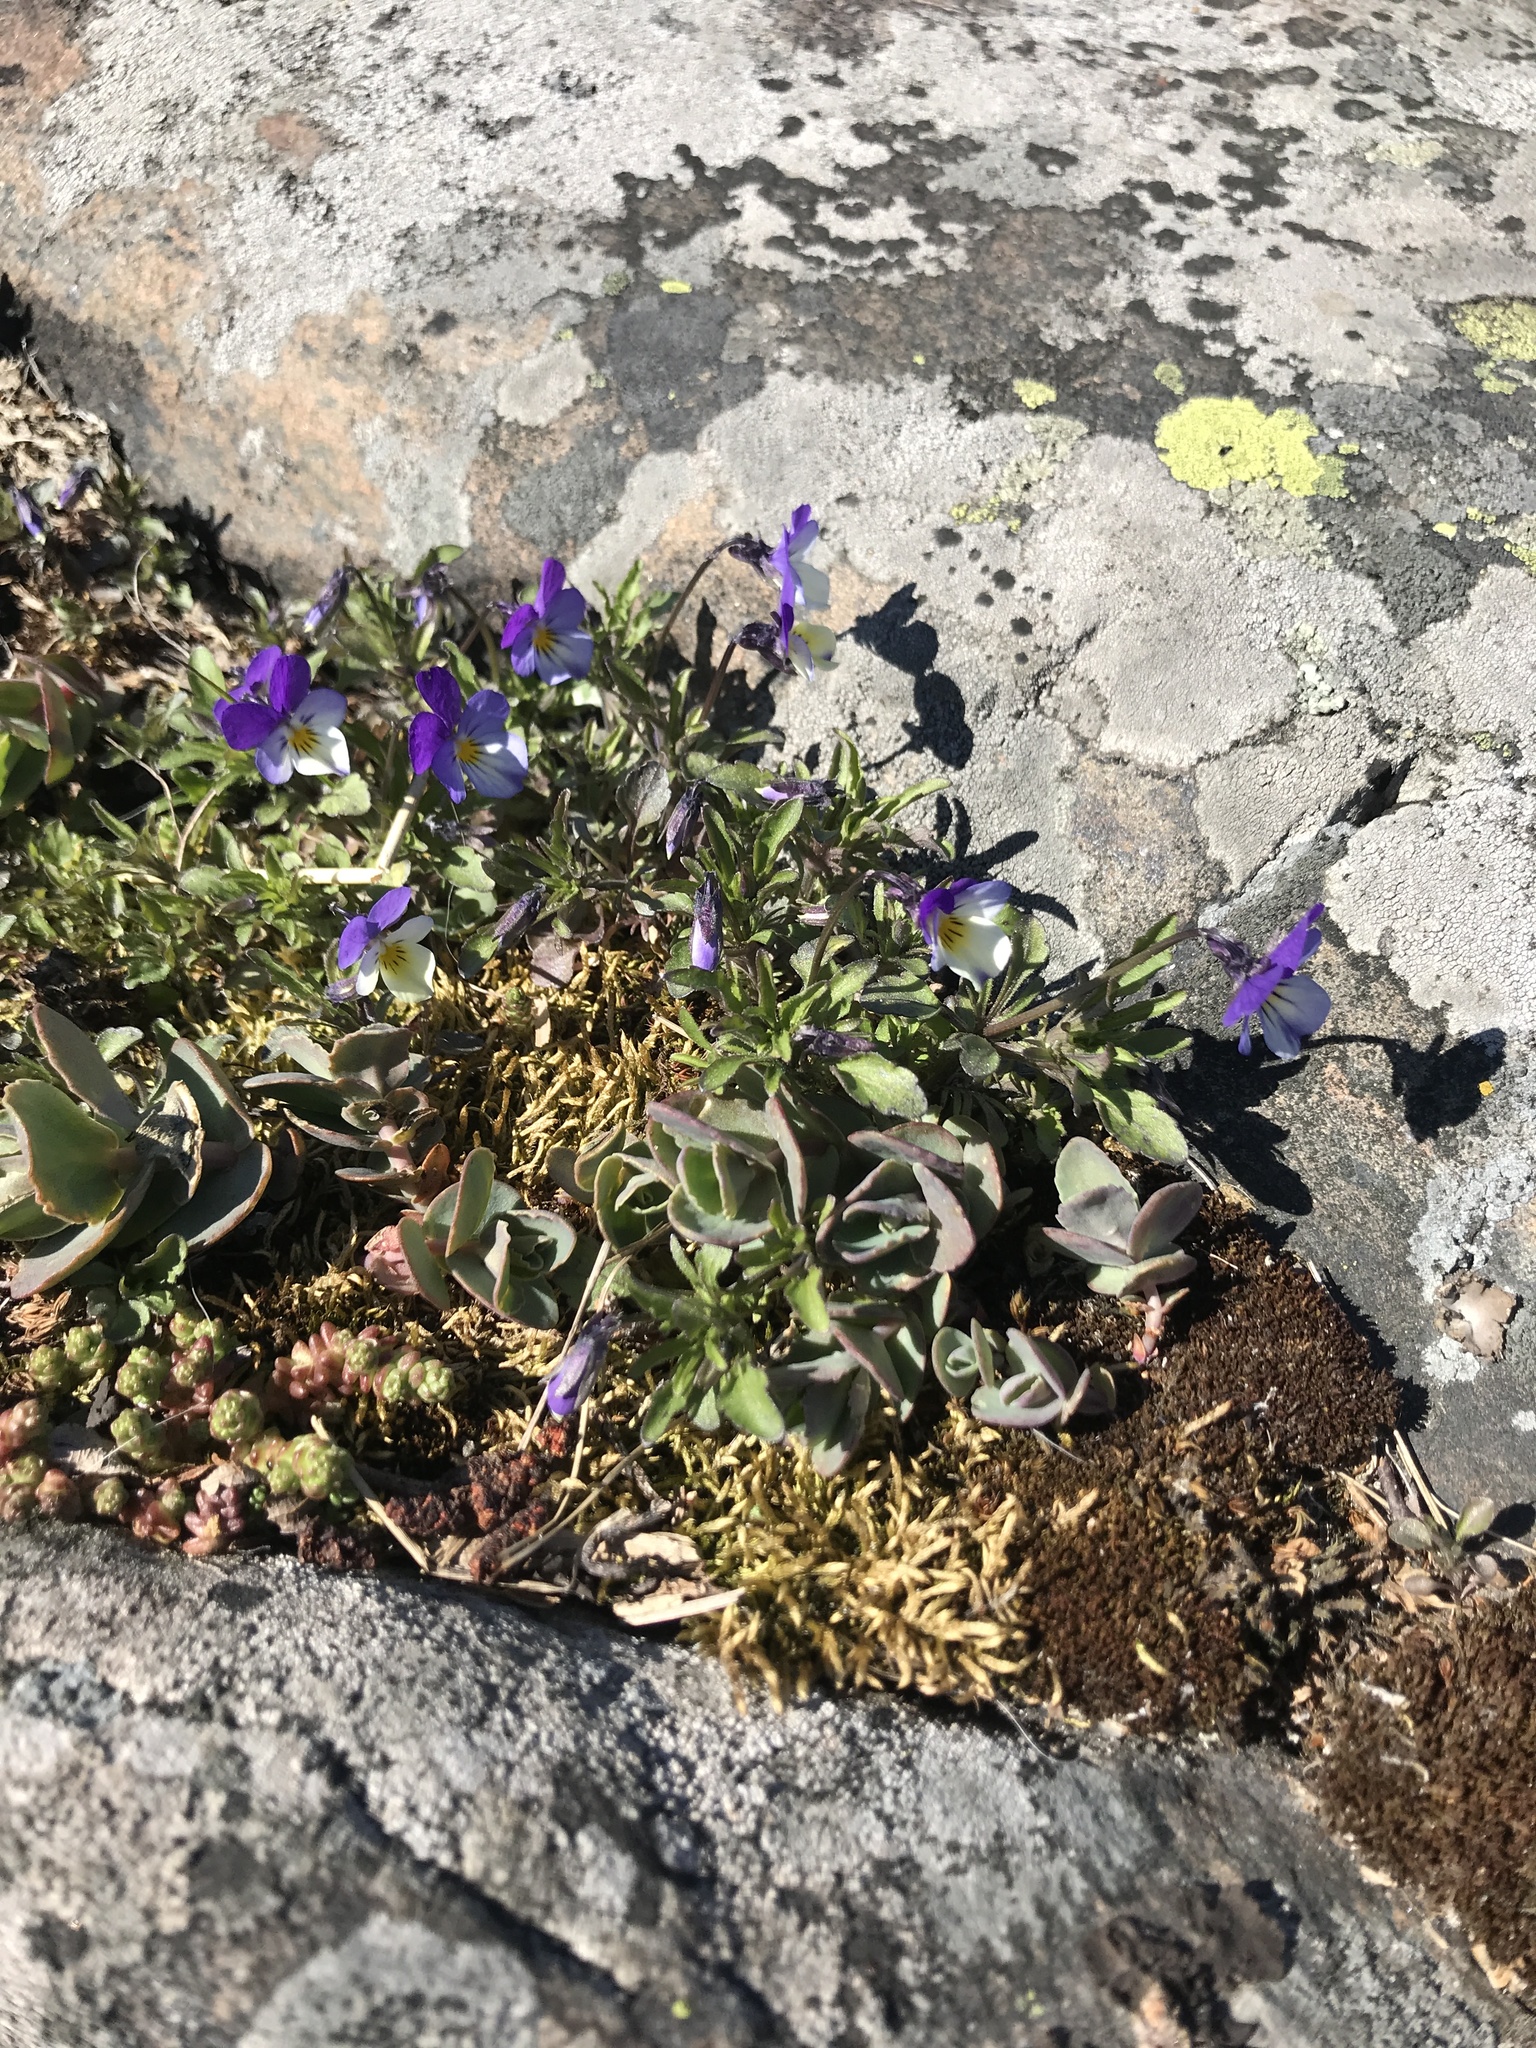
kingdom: Plantae
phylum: Tracheophyta
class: Magnoliopsida
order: Malpighiales
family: Violaceae
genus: Viola
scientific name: Viola tricolor
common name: Pansy
